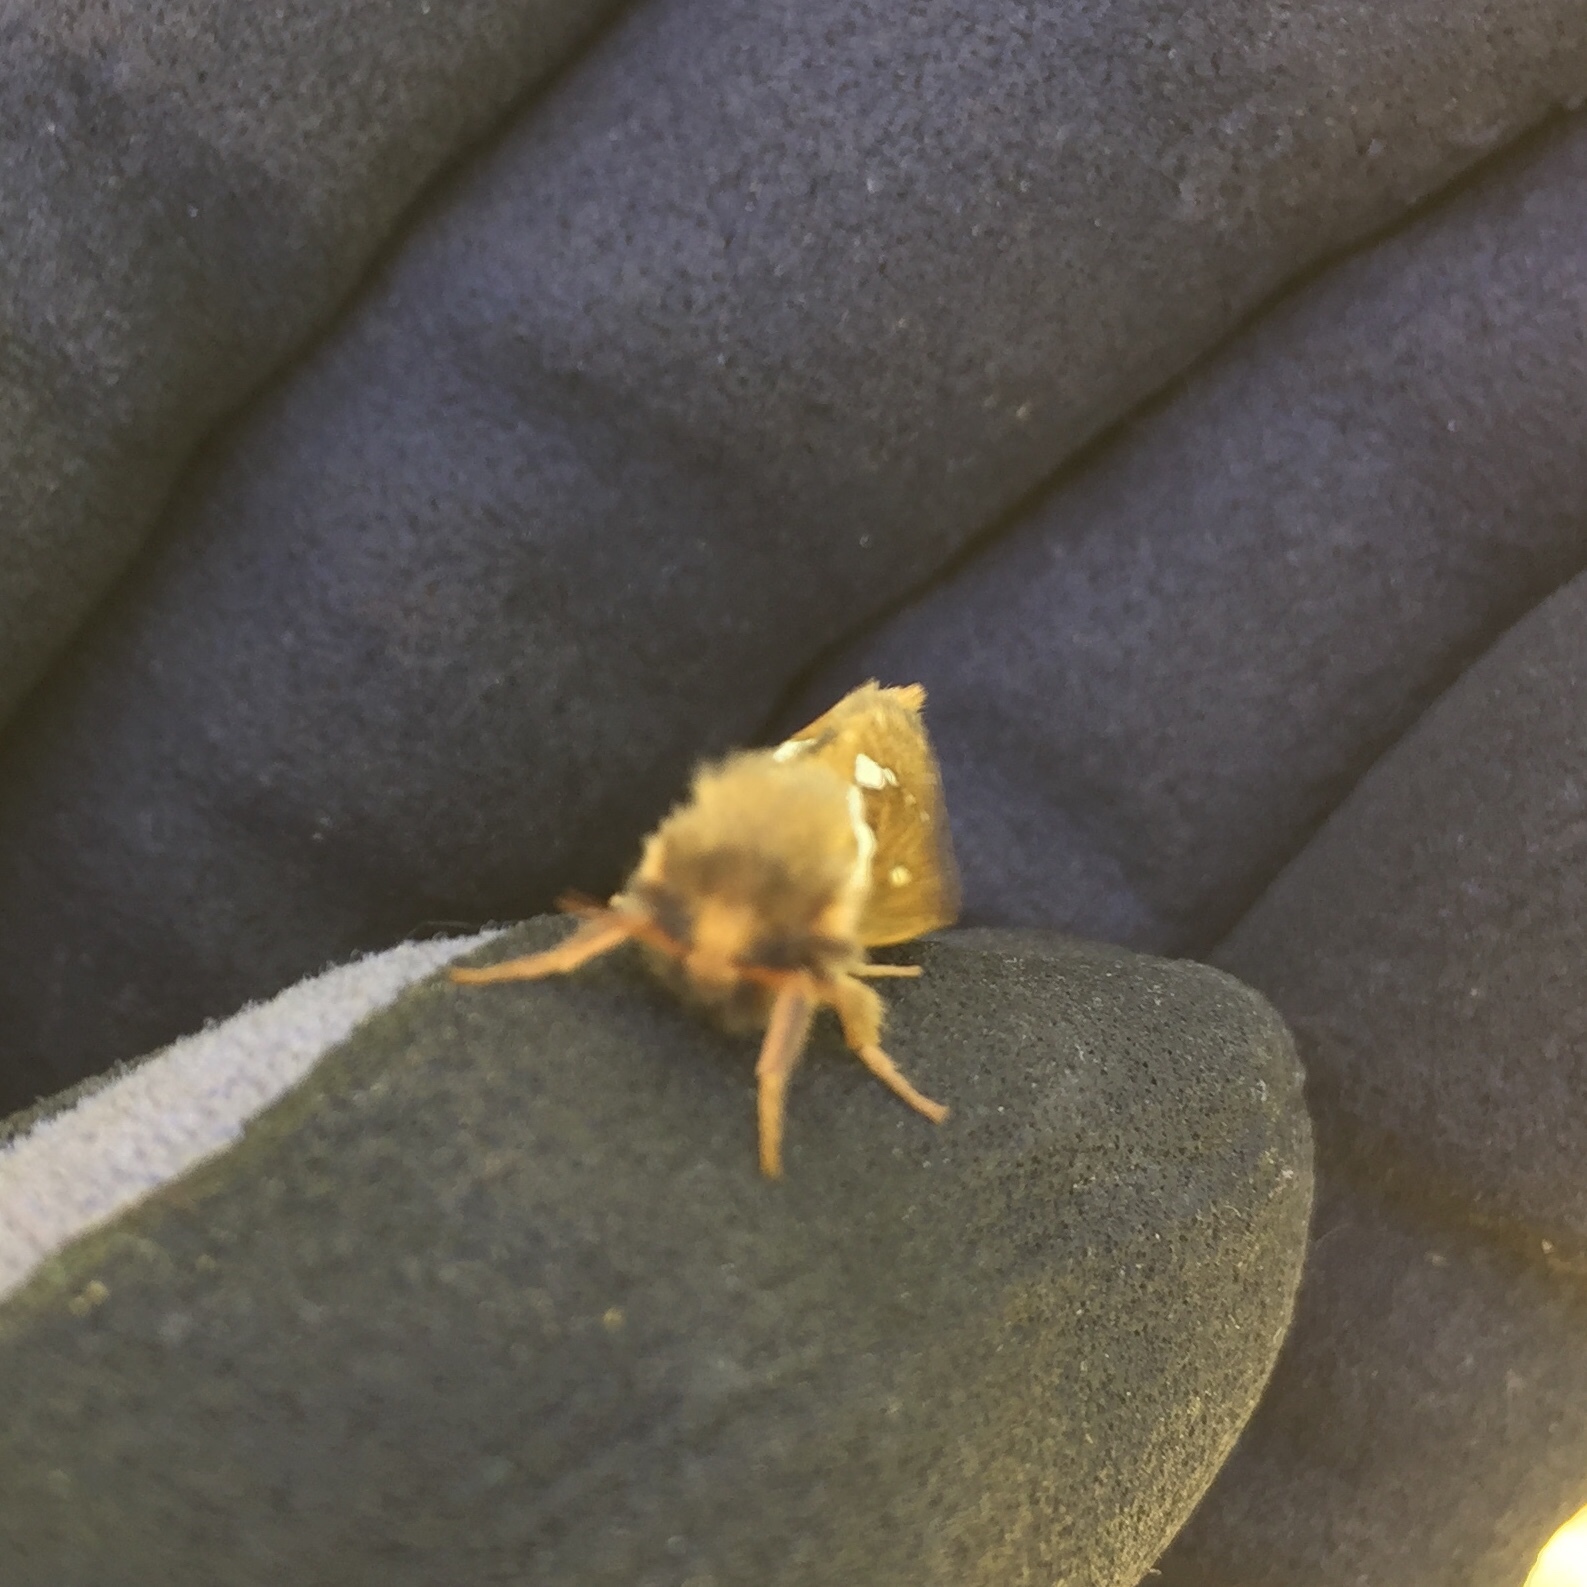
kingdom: Animalia
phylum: Arthropoda
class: Insecta
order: Lepidoptera
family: Hepialidae
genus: Korscheltellus
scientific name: Korscheltellus lupulina
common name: Common swift
